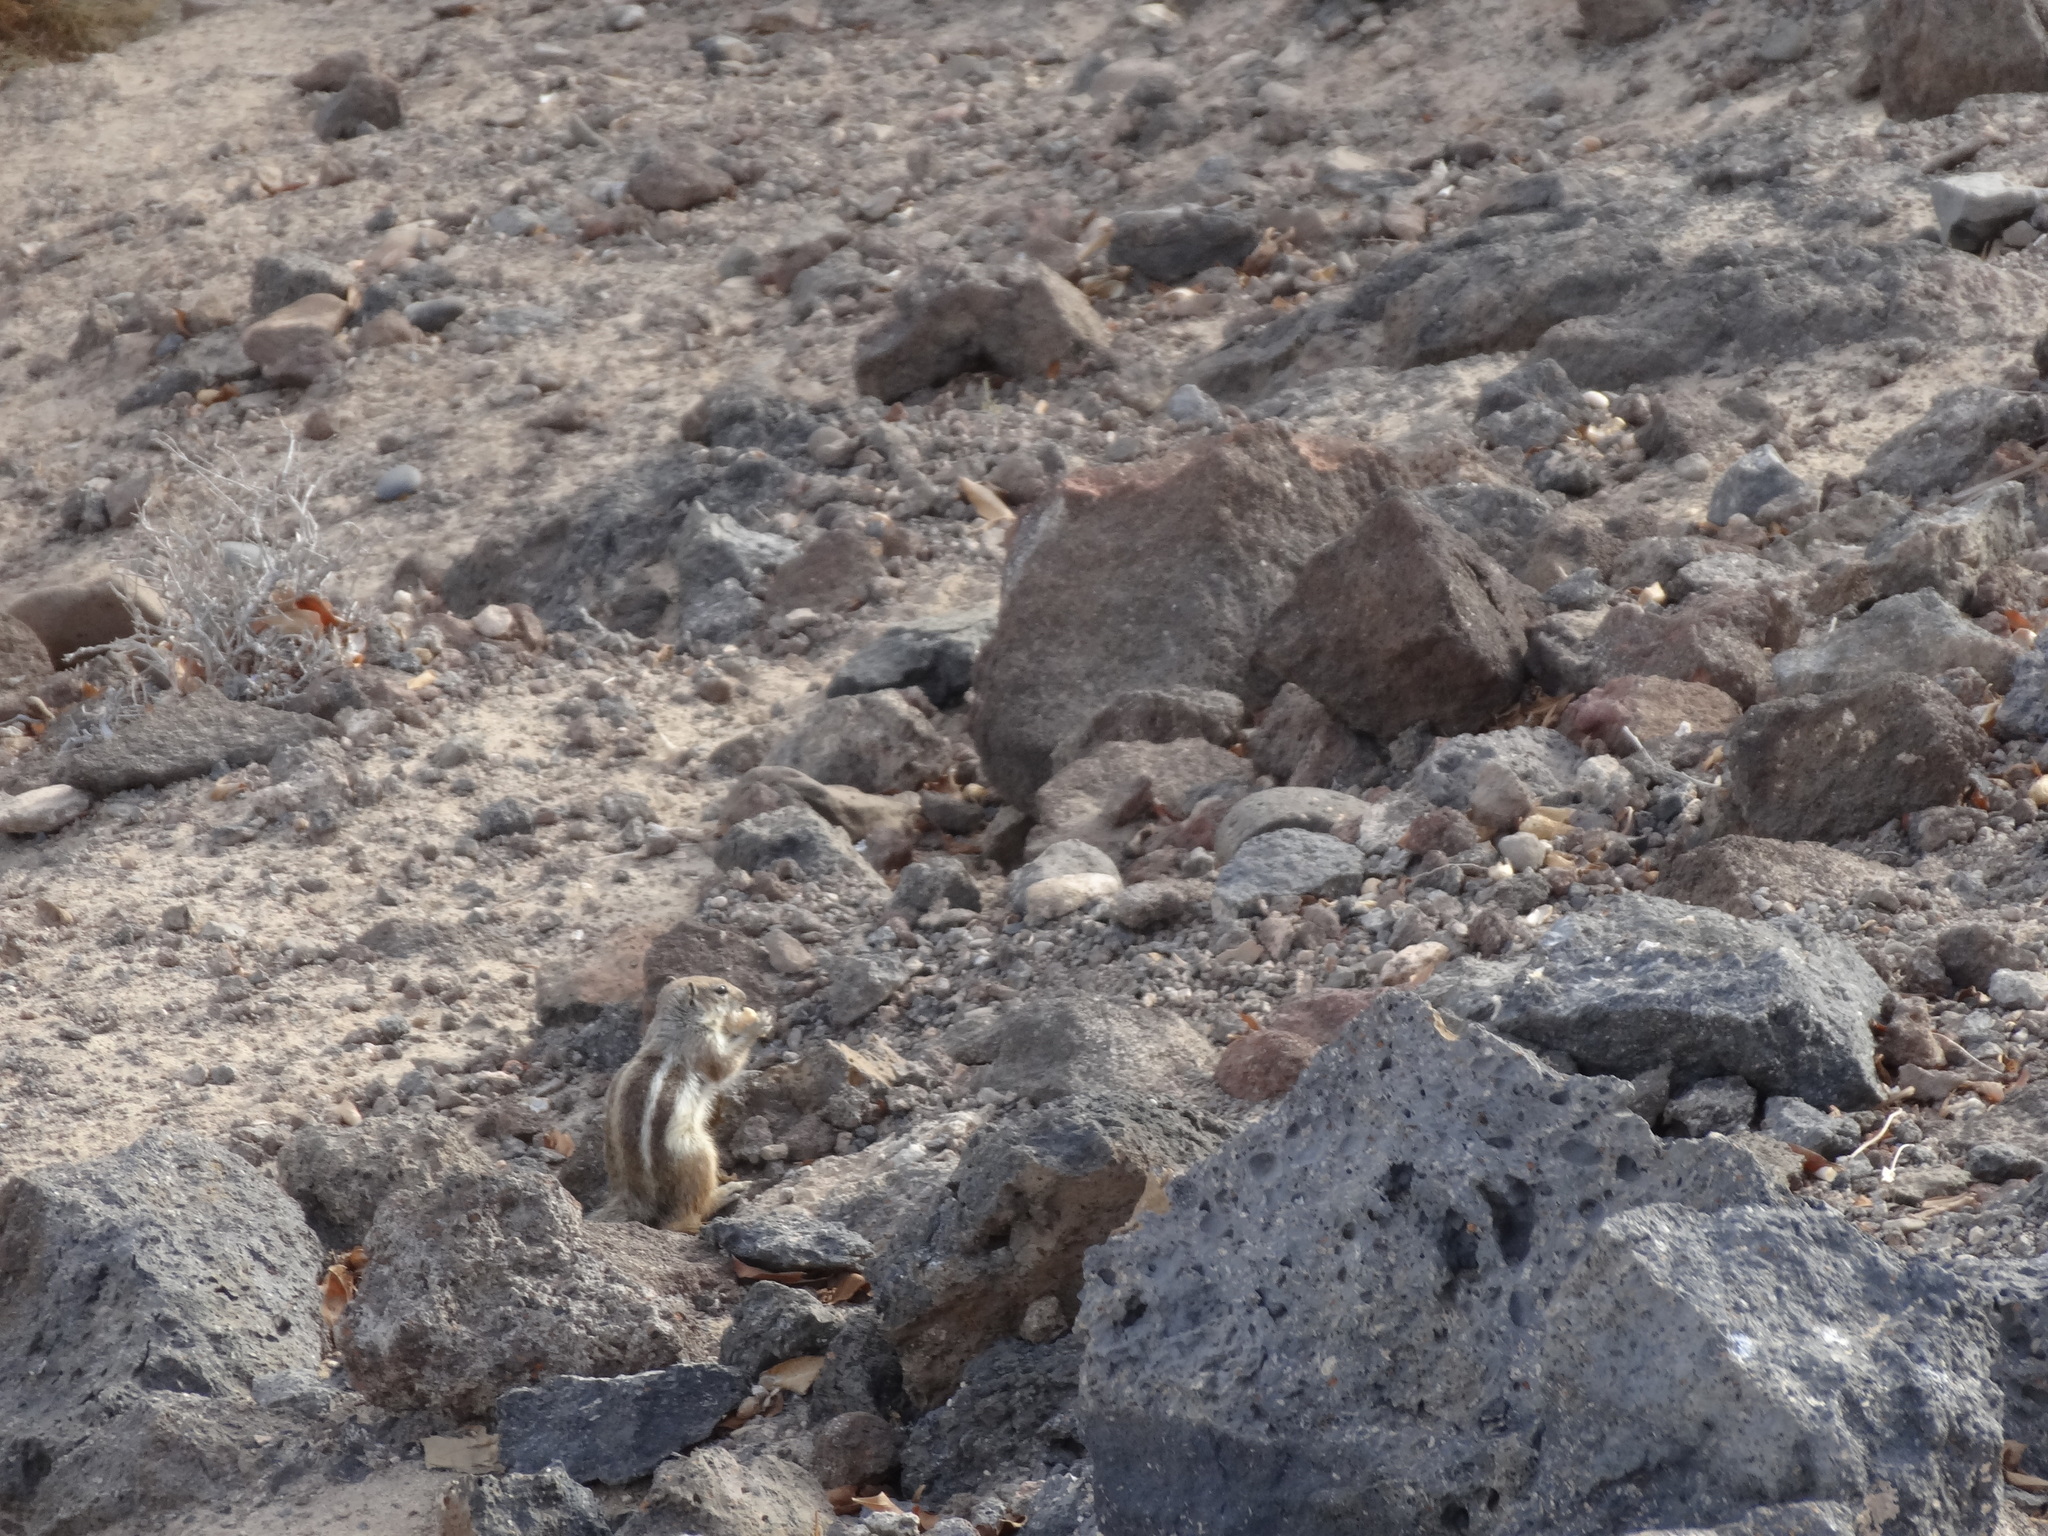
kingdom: Animalia
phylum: Chordata
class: Mammalia
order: Rodentia
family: Sciuridae
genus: Atlantoxerus
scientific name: Atlantoxerus getulus
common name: Barbary ground squirrel
